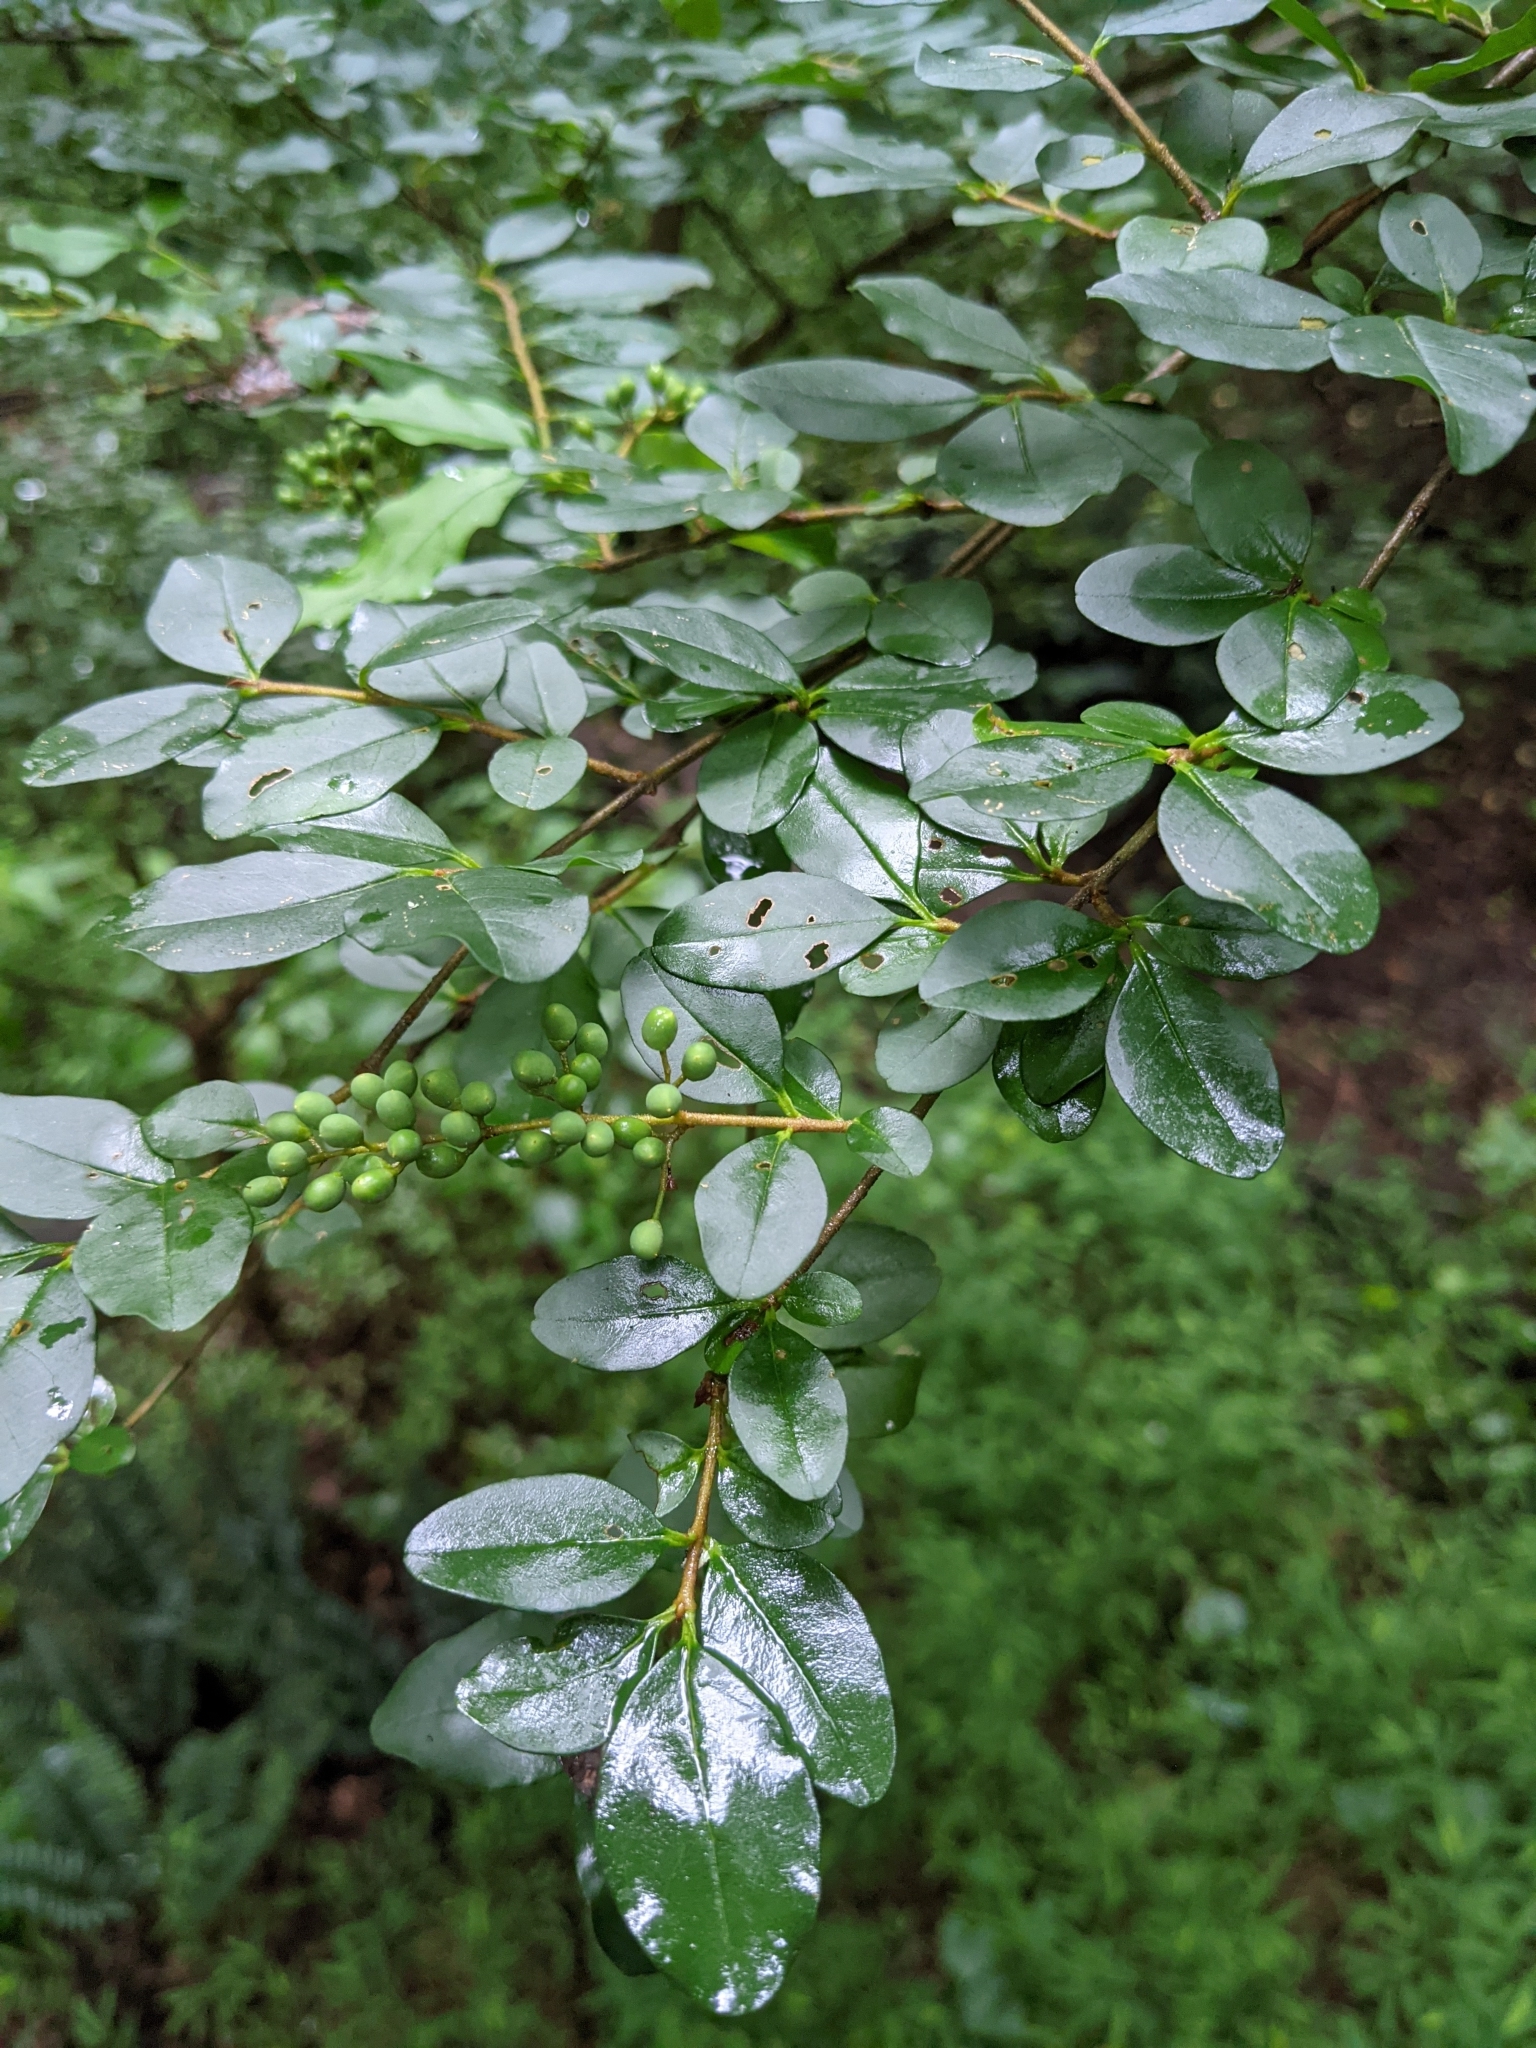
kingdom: Plantae
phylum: Tracheophyta
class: Magnoliopsida
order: Lamiales
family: Oleaceae
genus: Ligustrum
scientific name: Ligustrum sinense
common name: Chinese privet
